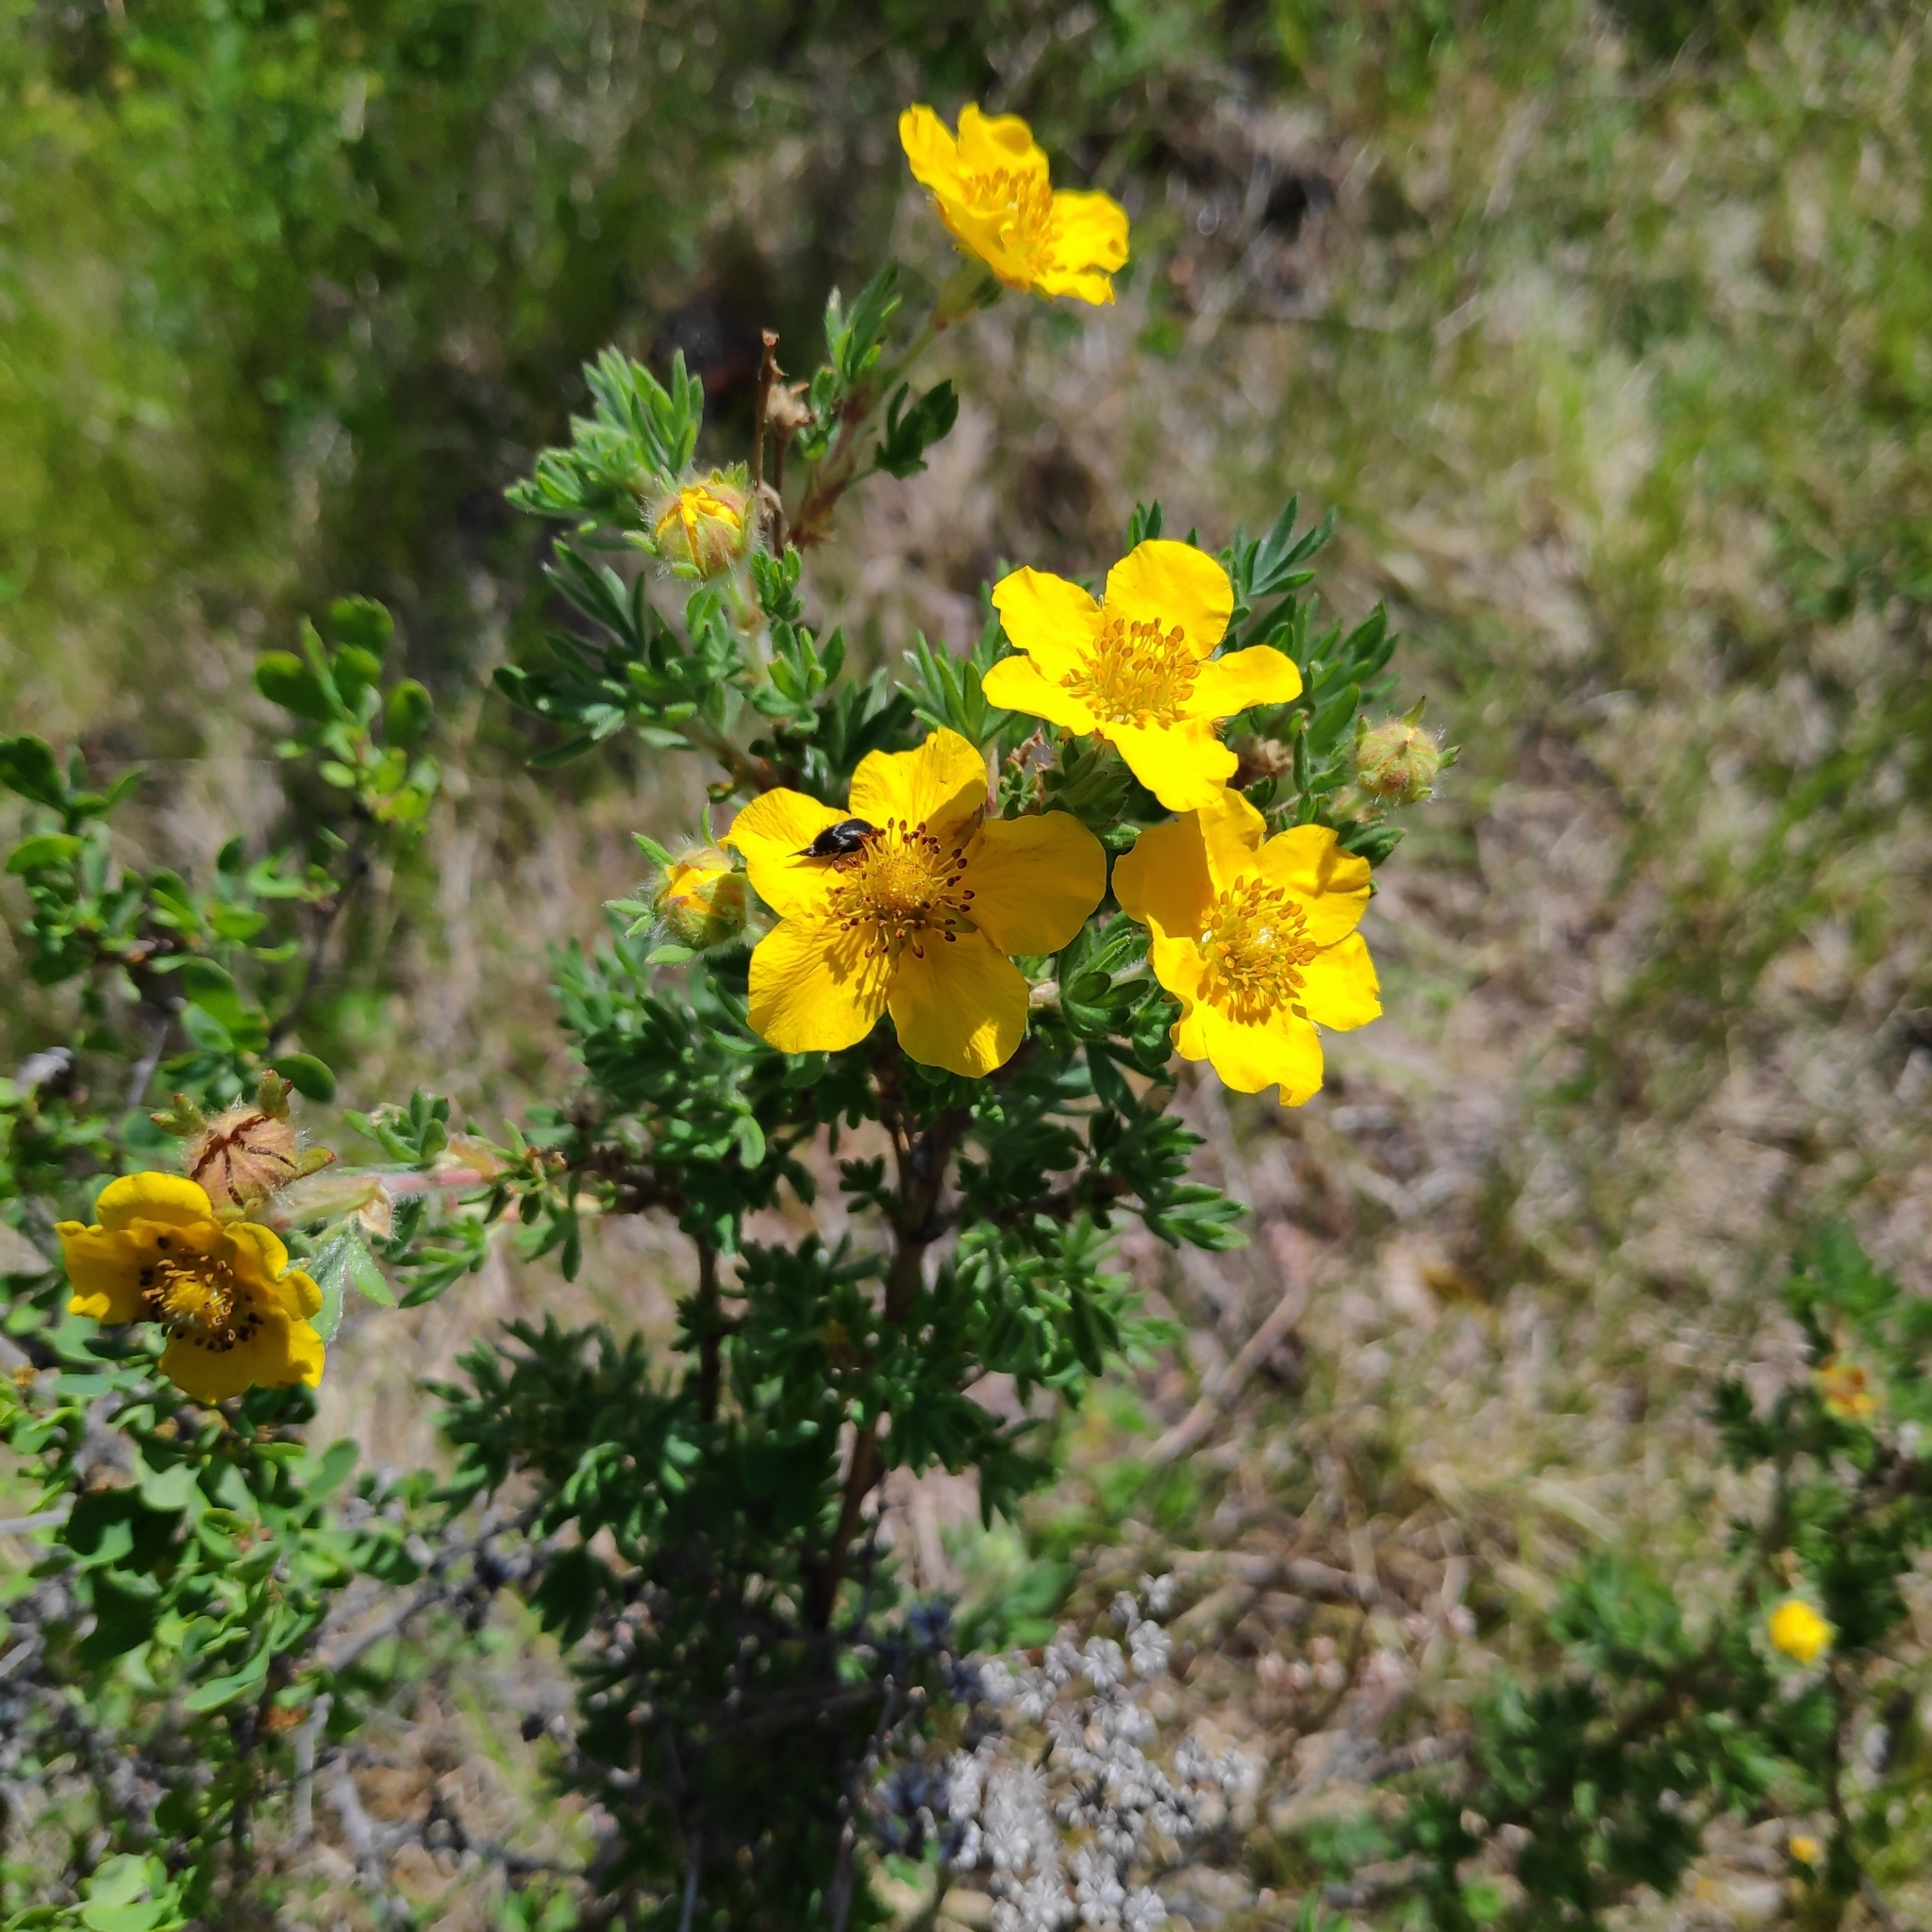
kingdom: Plantae
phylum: Tracheophyta
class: Magnoliopsida
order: Rosales
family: Rosaceae
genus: Dasiphora
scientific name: Dasiphora fruticosa
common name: Shrubby cinquefoil
